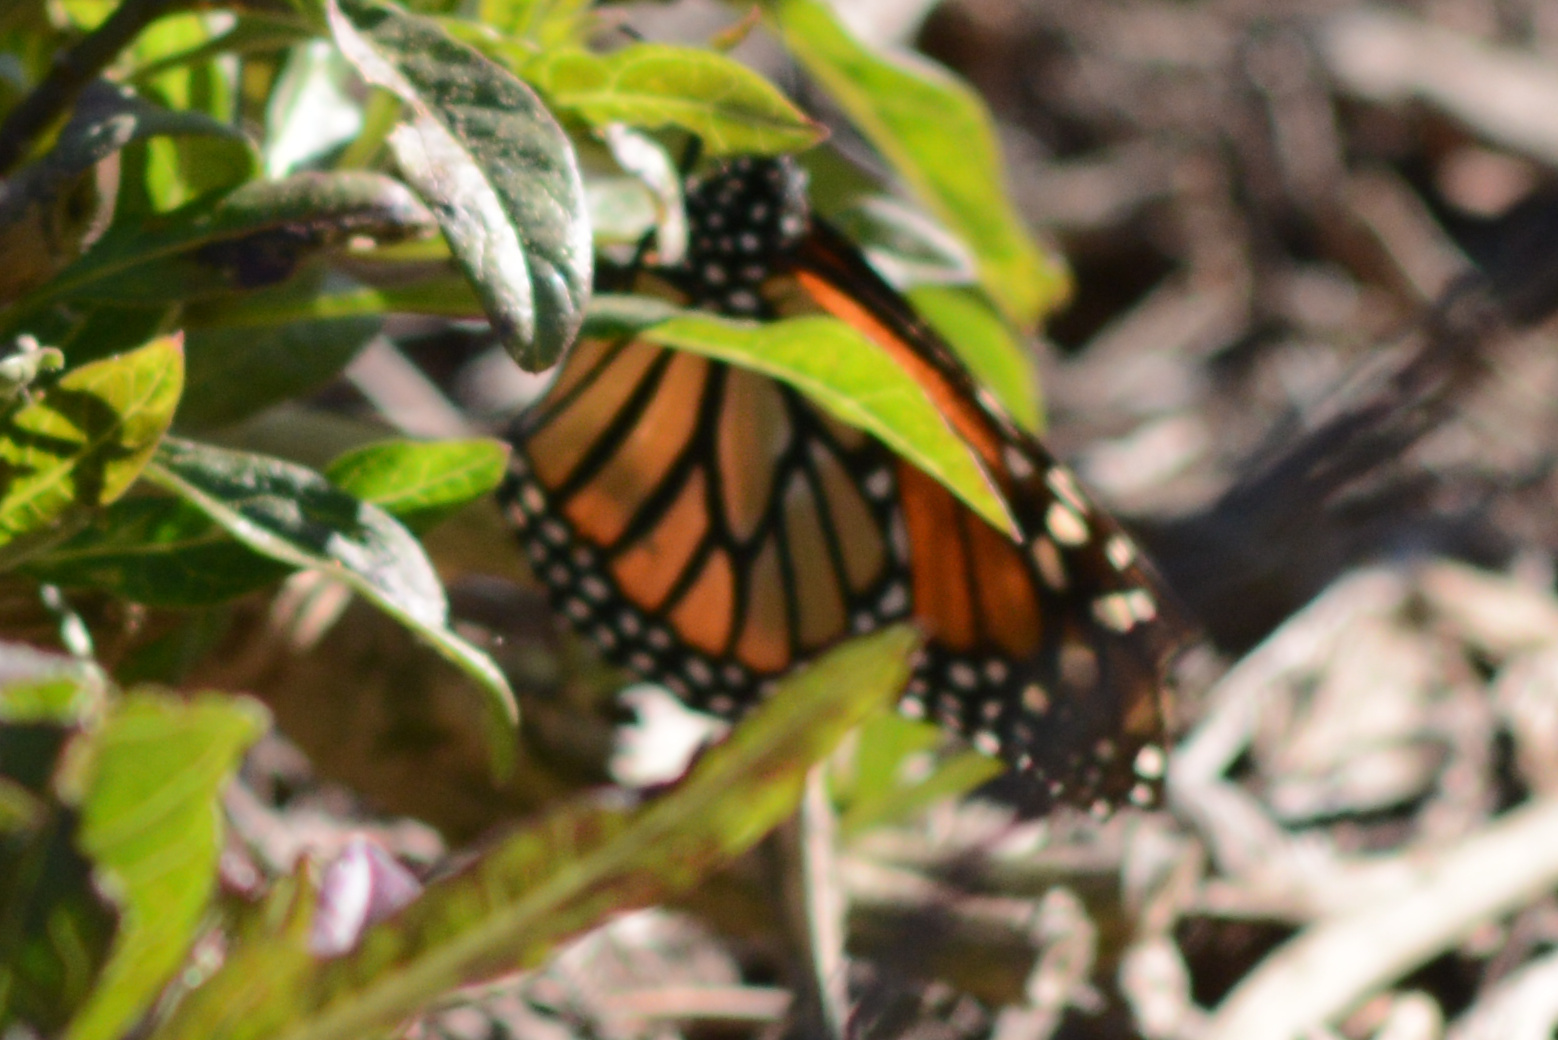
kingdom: Animalia
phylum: Arthropoda
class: Insecta
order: Lepidoptera
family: Nymphalidae
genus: Danaus
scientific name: Danaus plexippus
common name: Monarch
